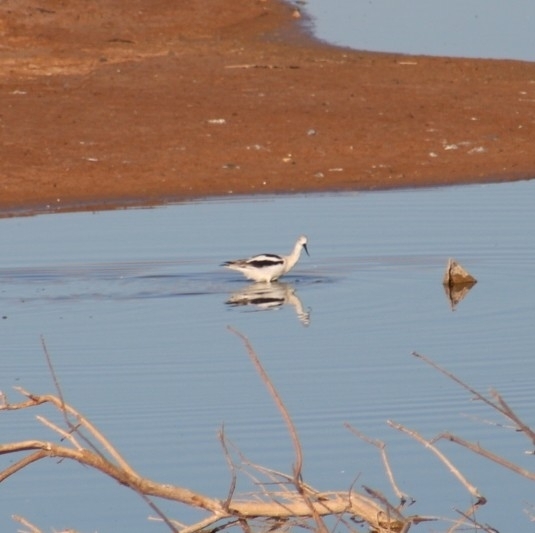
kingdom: Animalia
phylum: Chordata
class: Aves
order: Charadriiformes
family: Recurvirostridae
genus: Recurvirostra
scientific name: Recurvirostra americana
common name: American avocet
